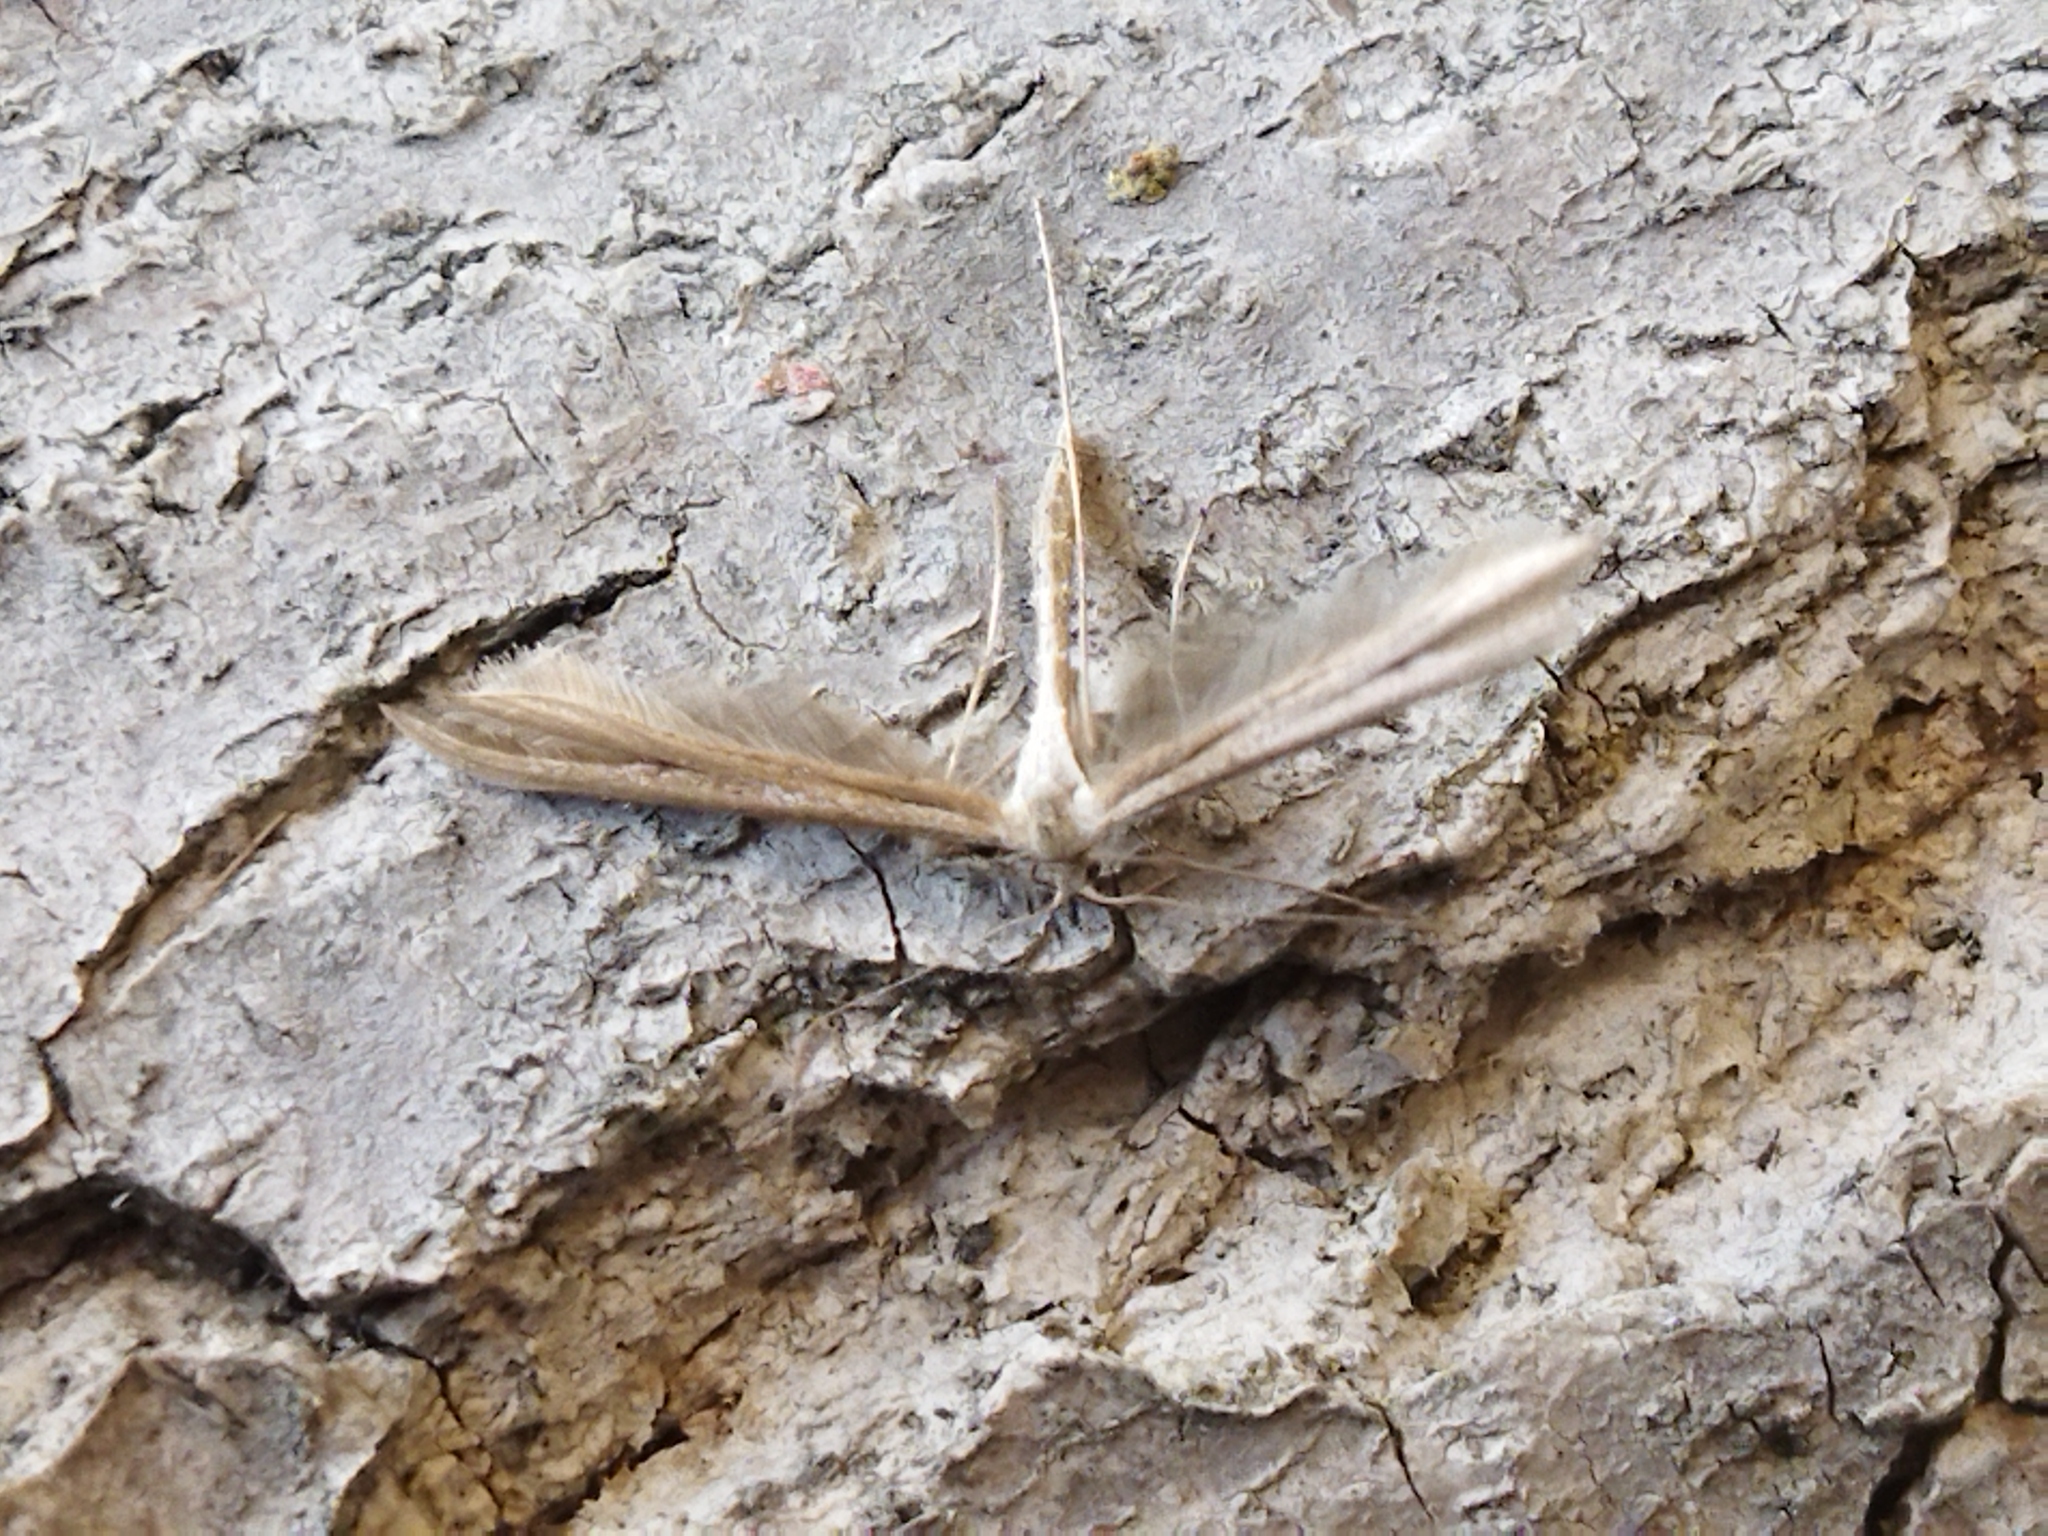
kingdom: Animalia
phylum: Arthropoda
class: Insecta
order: Lepidoptera
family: Pterophoridae
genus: Emmelina
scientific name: Emmelina monodactyla
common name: Common plume
